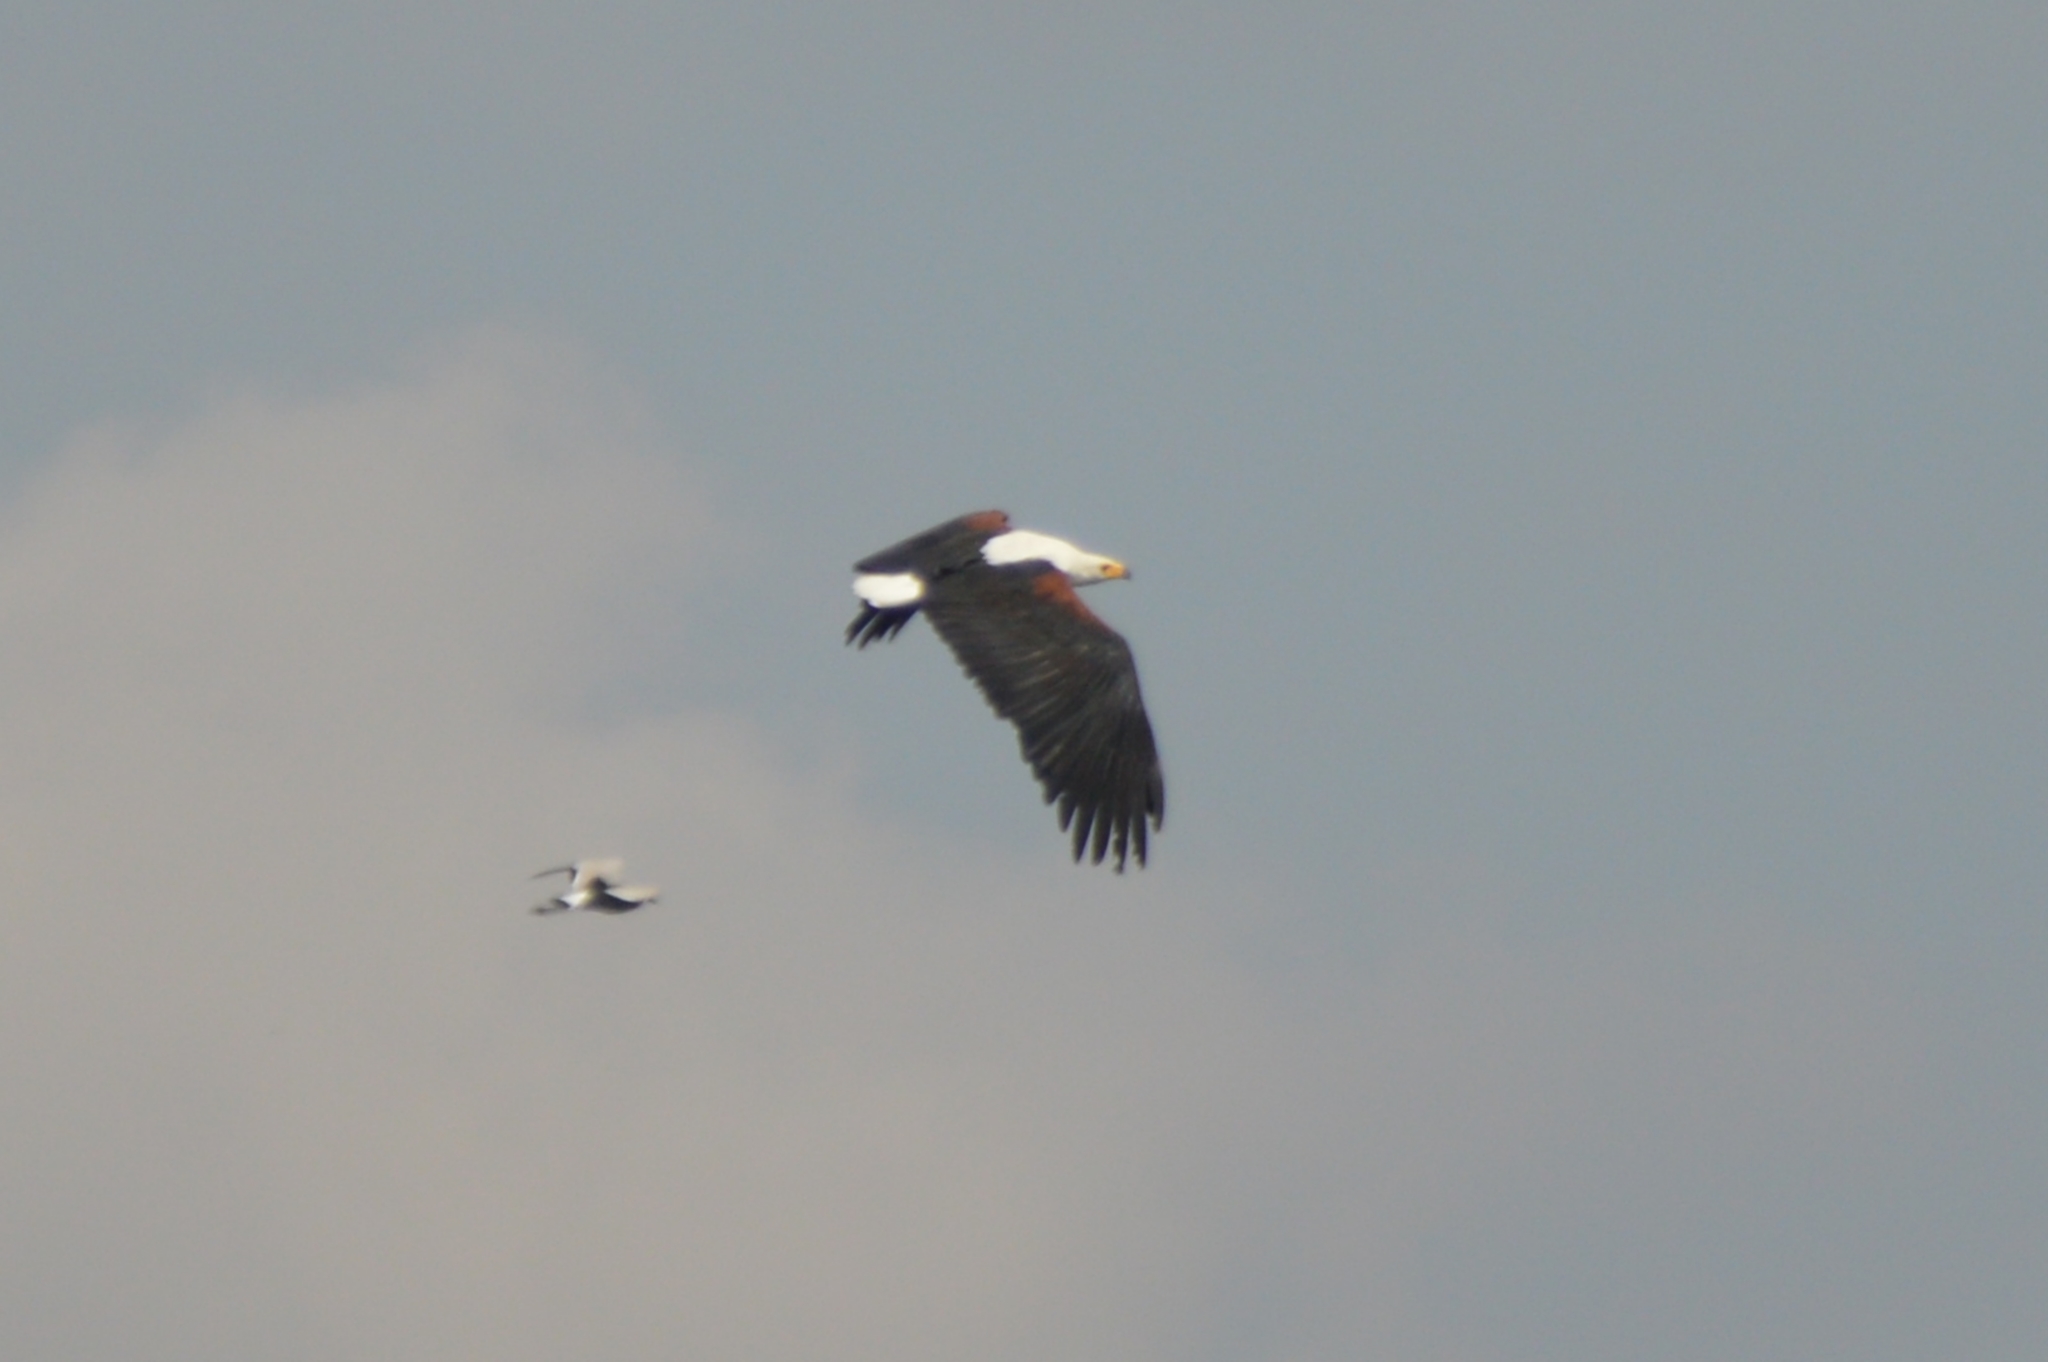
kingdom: Animalia
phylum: Chordata
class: Aves
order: Accipitriformes
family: Accipitridae
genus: Haliaeetus
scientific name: Haliaeetus vocifer
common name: African fish eagle
